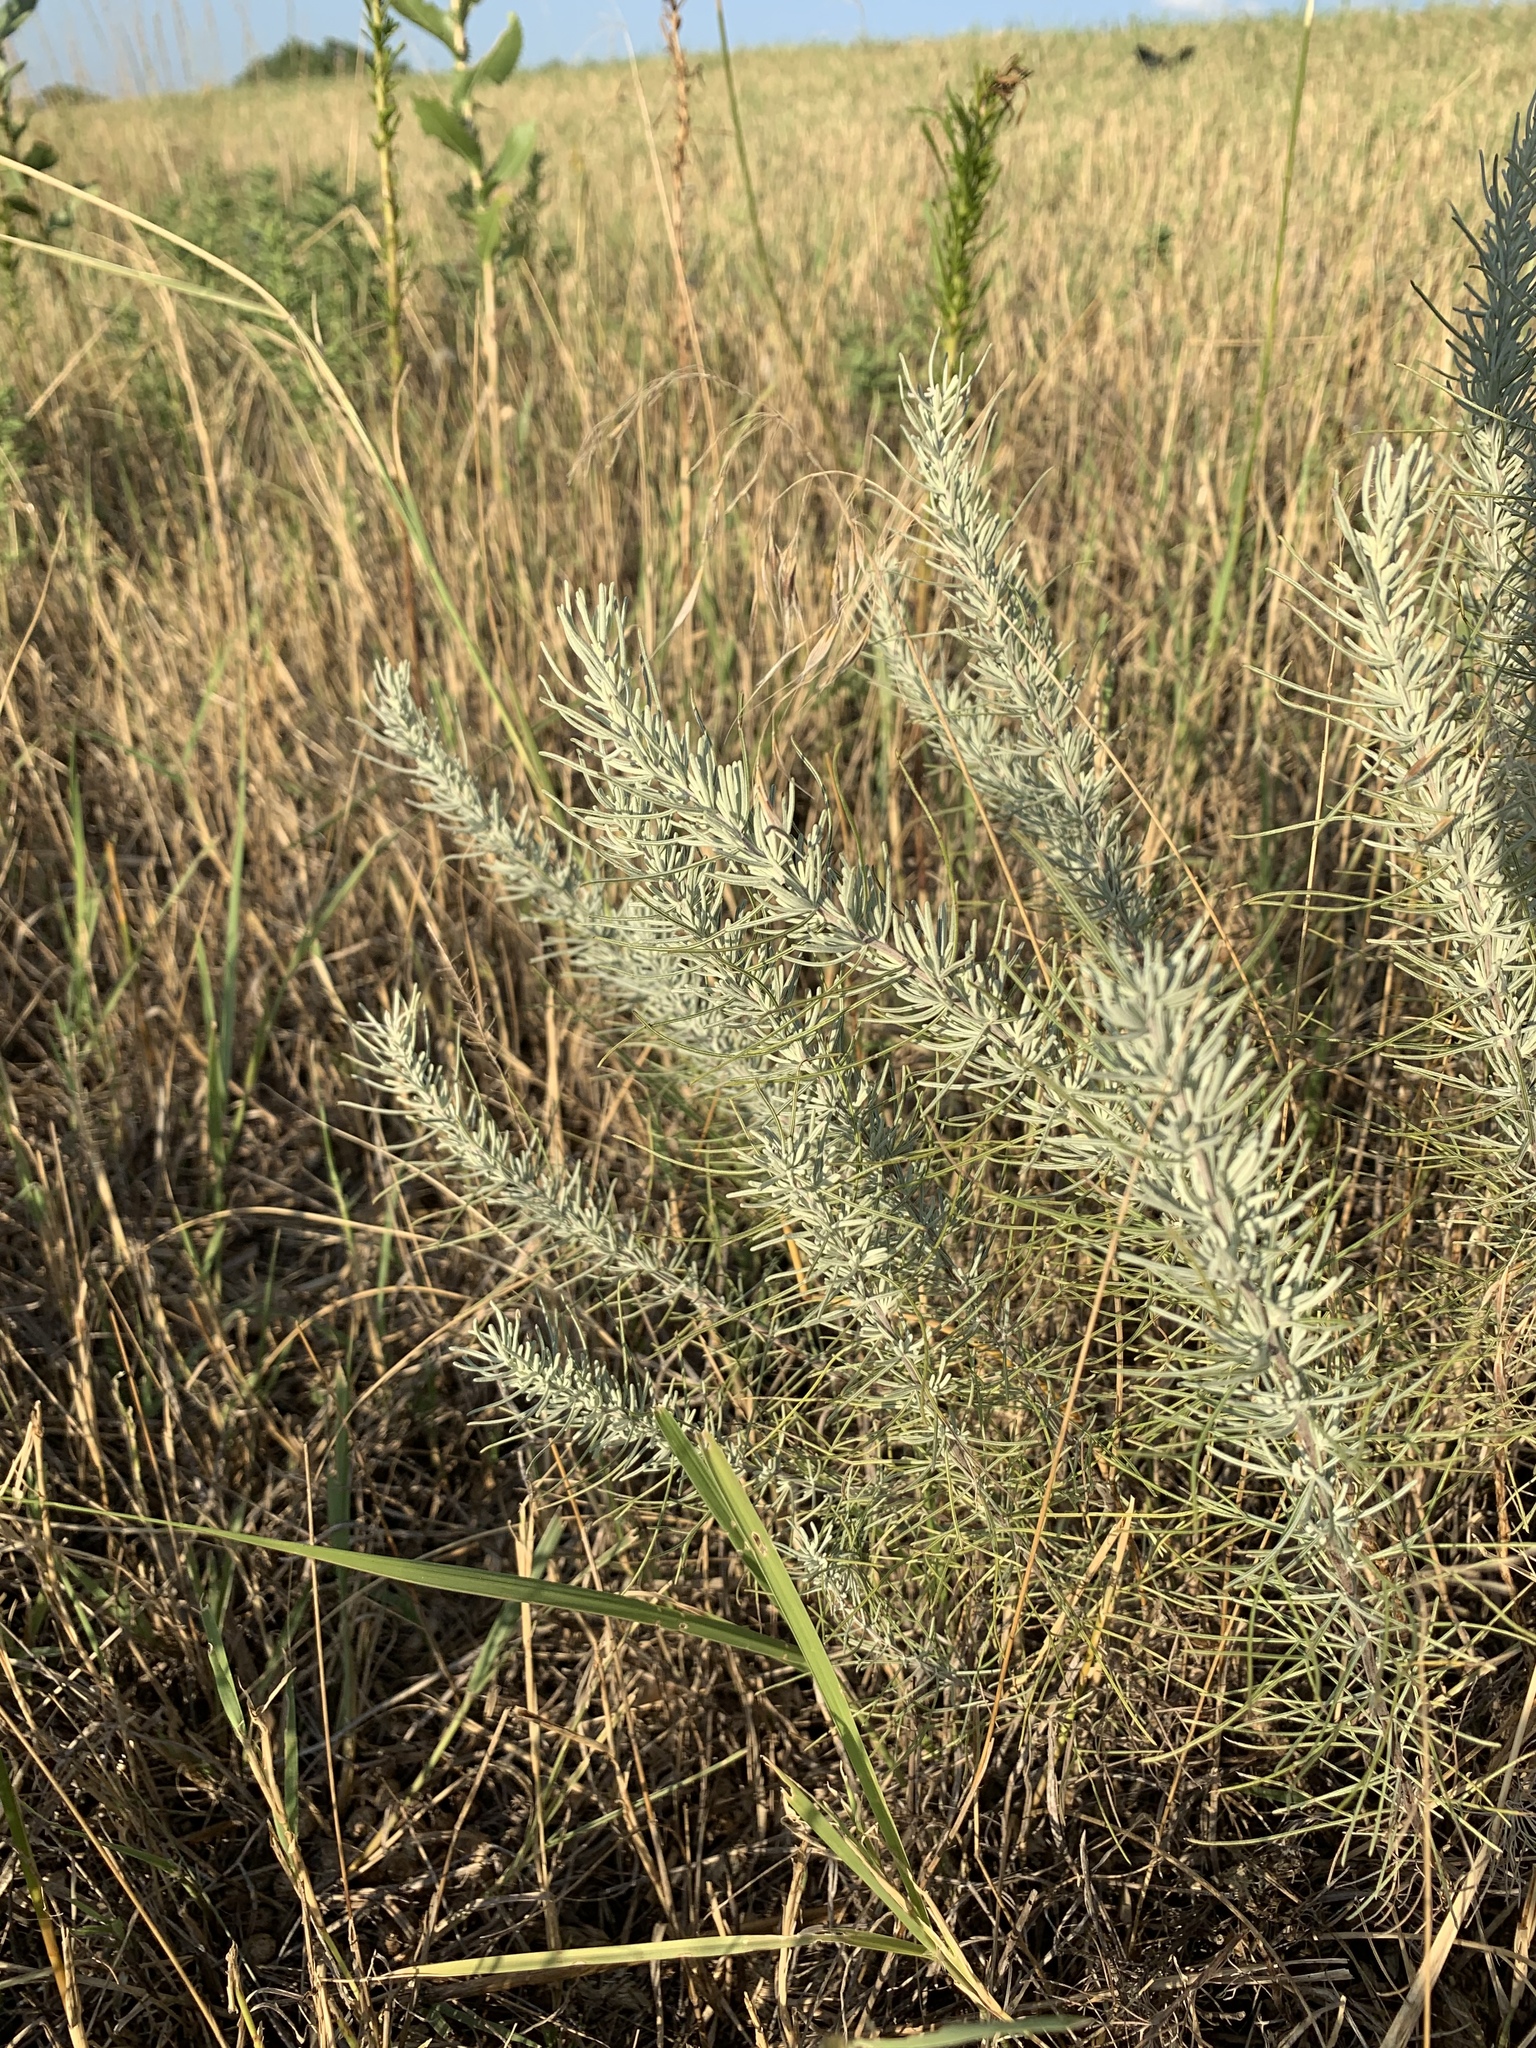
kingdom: Plantae
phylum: Tracheophyta
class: Magnoliopsida
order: Asterales
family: Asteraceae
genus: Artemisia
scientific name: Artemisia filifolia
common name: Sand-sage
